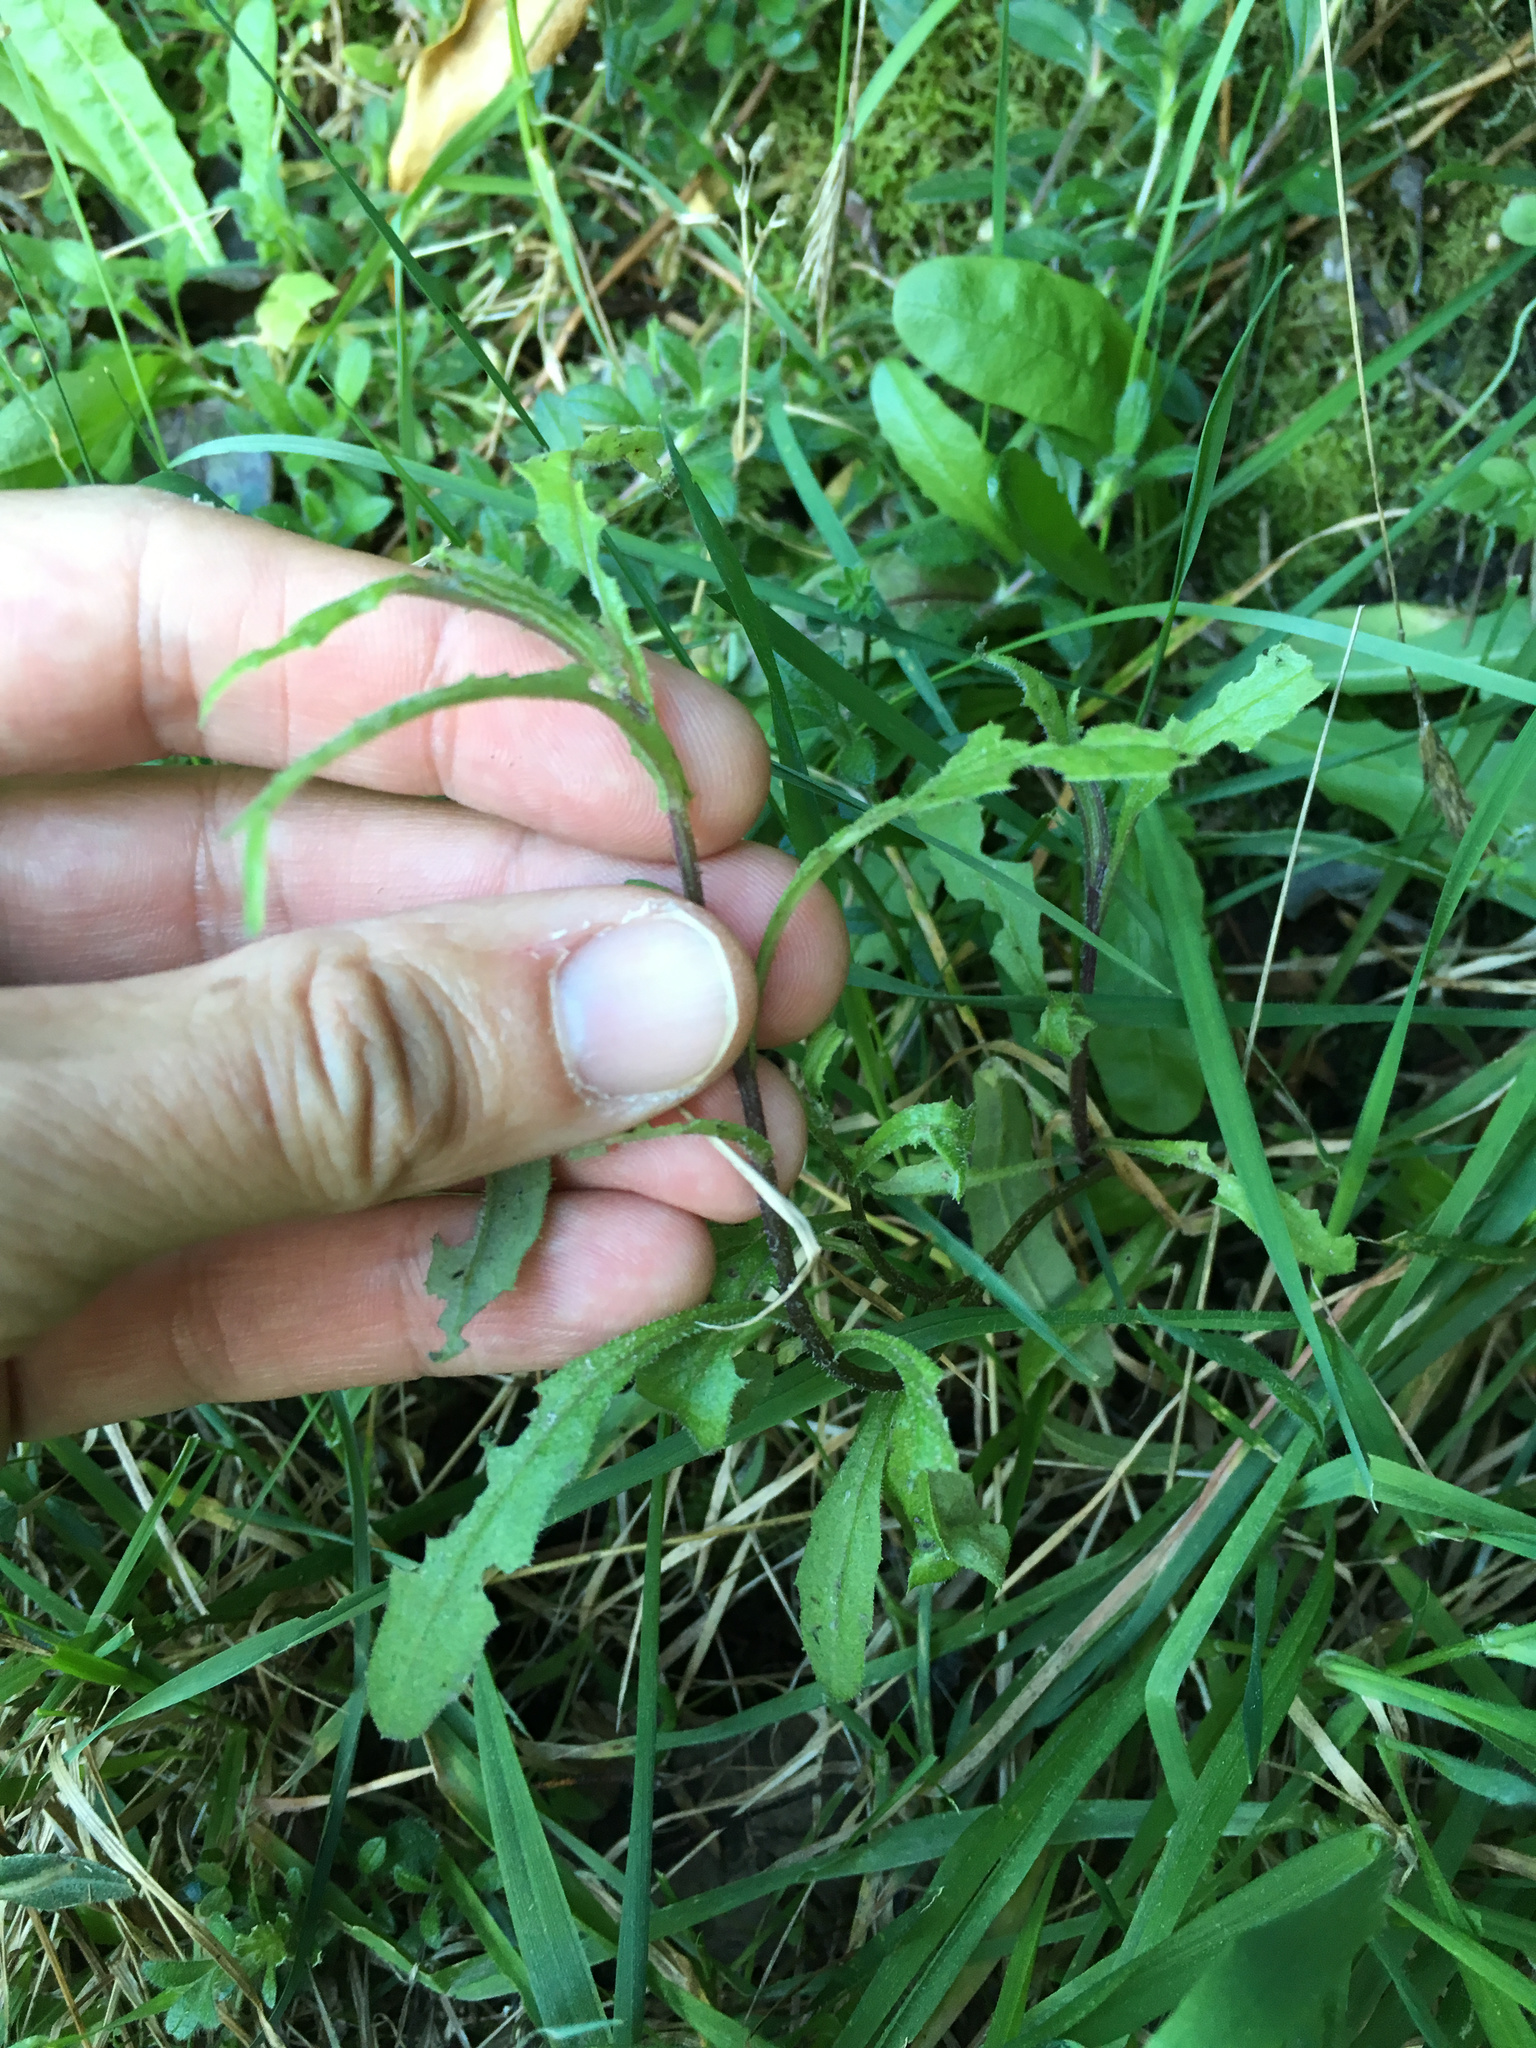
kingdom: Plantae
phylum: Tracheophyta
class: Magnoliopsida
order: Asterales
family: Asteraceae
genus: Senecio
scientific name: Senecio glomeratus
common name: Cutleaf burnweed
